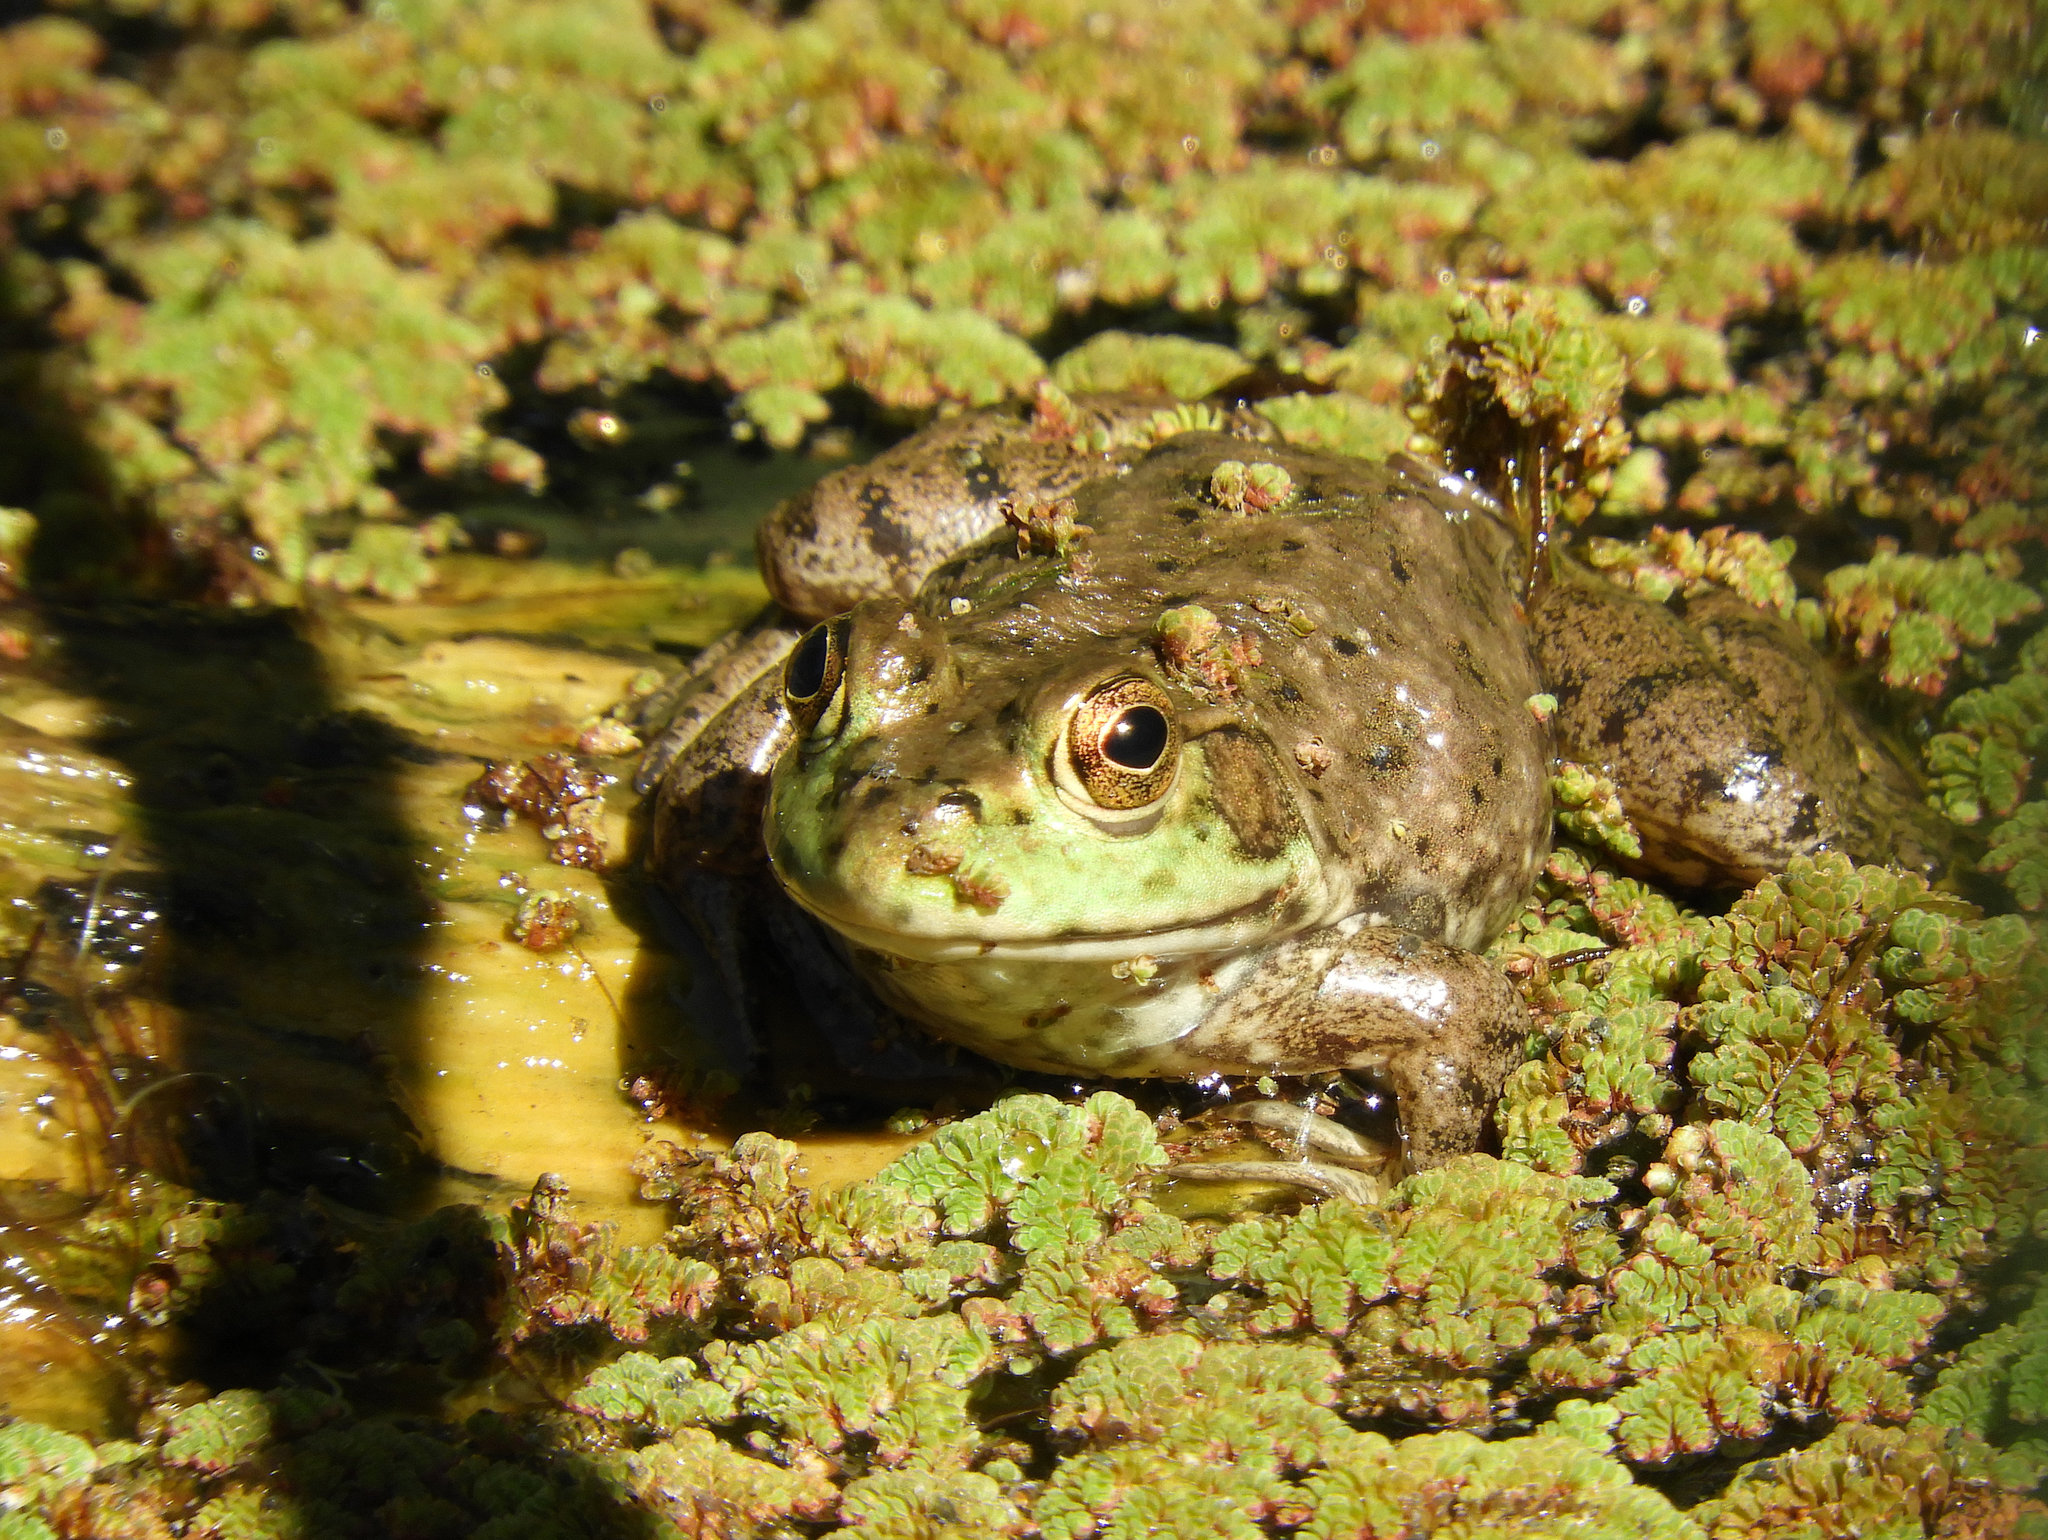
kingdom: Animalia
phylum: Chordata
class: Amphibia
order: Anura
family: Ranidae
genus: Lithobates
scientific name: Lithobates catesbeianus
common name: American bullfrog
